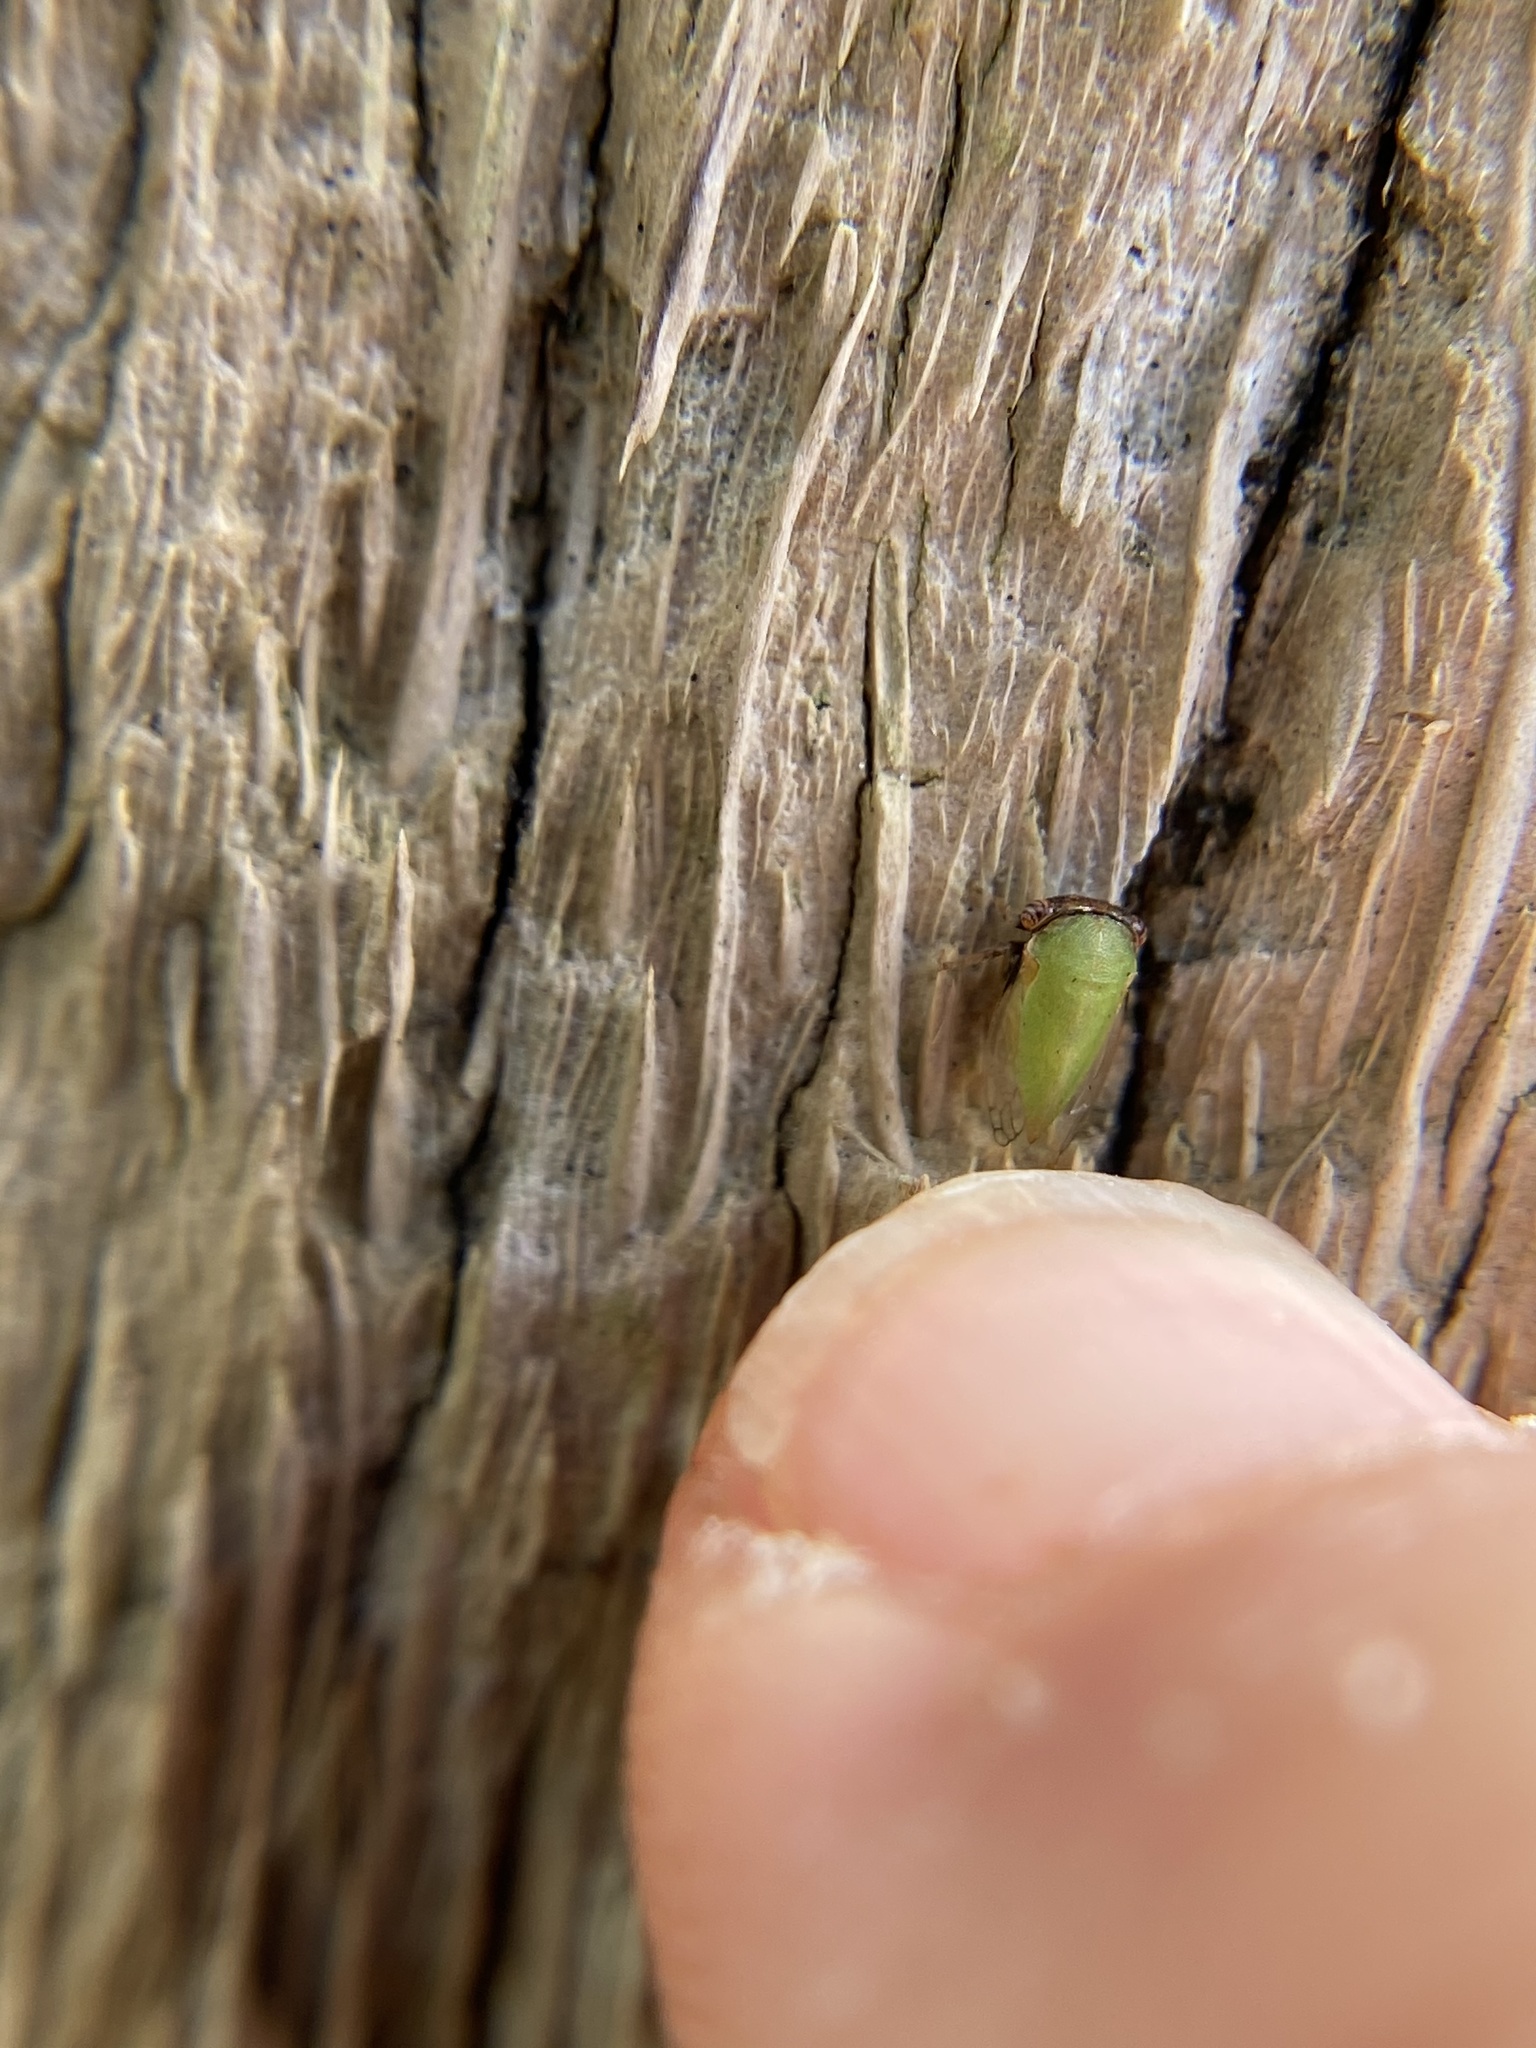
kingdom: Animalia
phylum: Arthropoda
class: Insecta
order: Hemiptera
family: Membracidae
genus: Idioderma
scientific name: Idioderma virescens
